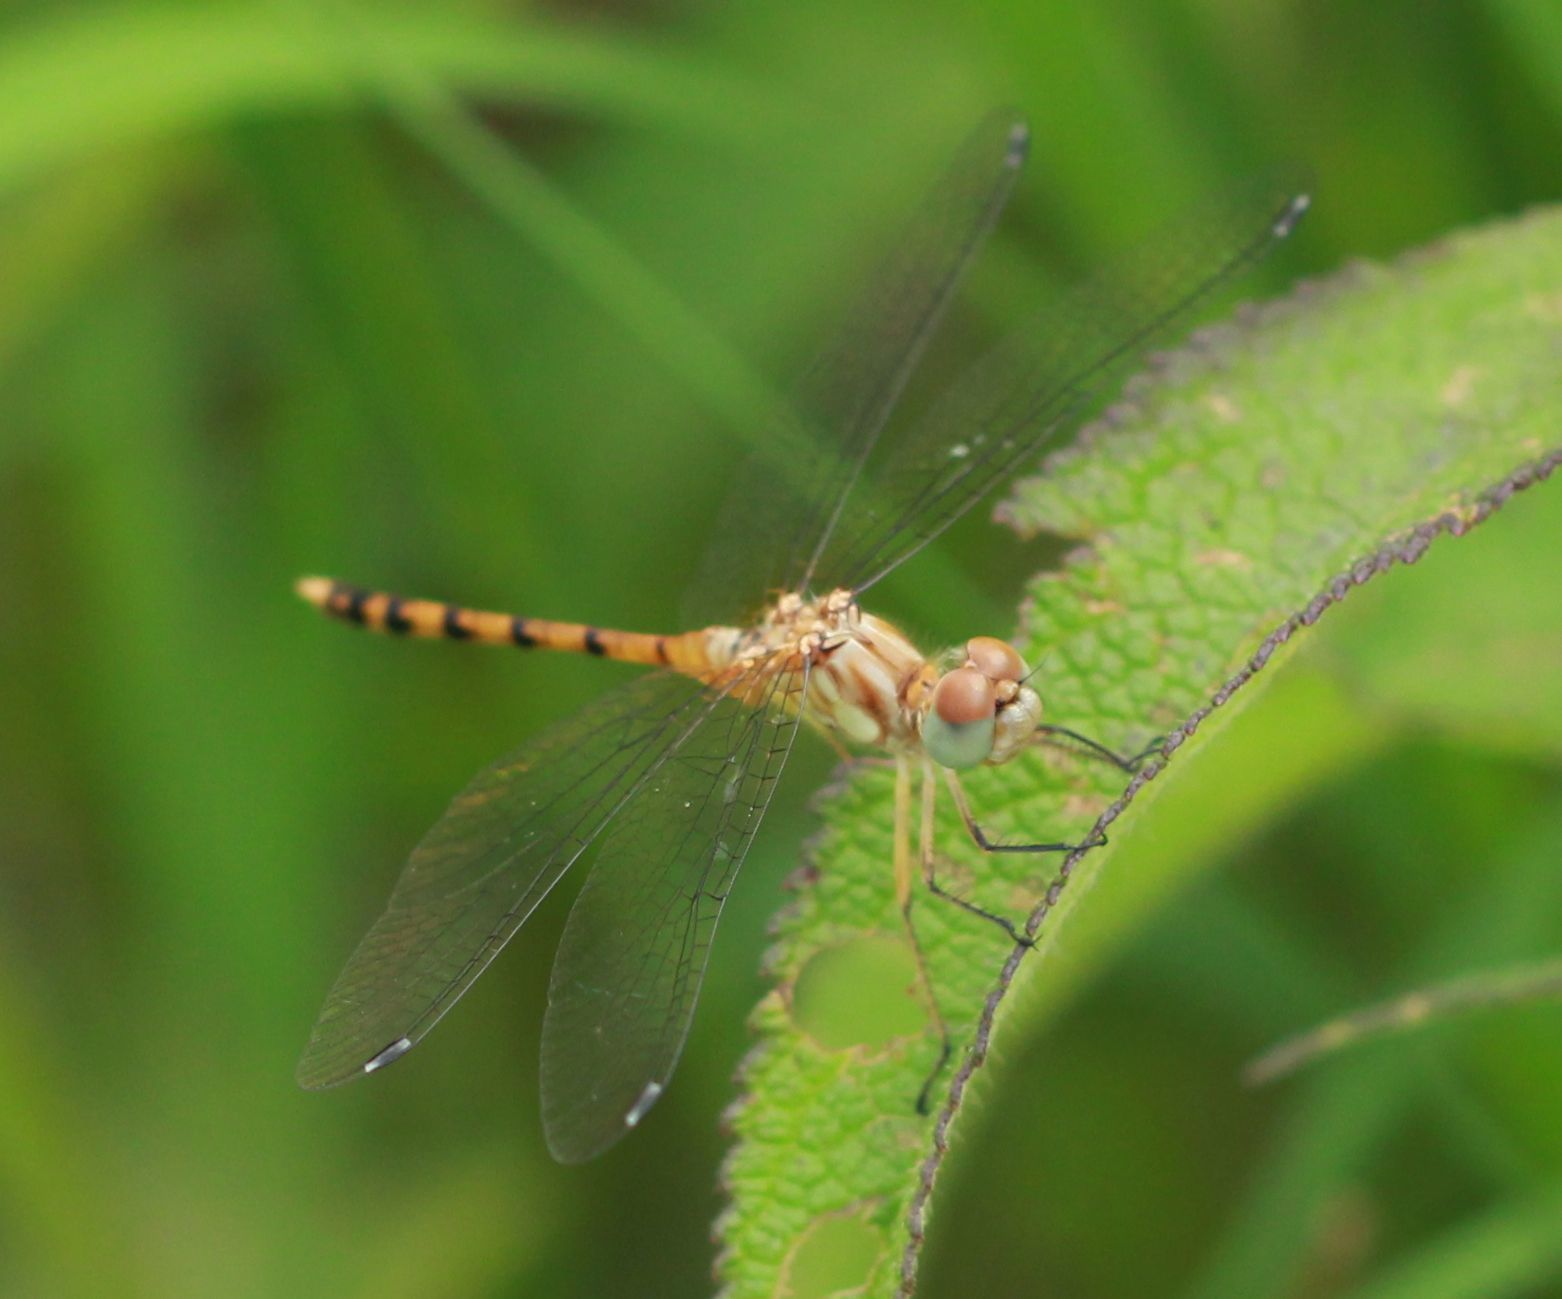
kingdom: Animalia
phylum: Arthropoda
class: Insecta
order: Odonata
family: Libellulidae
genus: Sympetrum
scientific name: Sympetrum ambiguum
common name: Blue-faced meadowhawk
